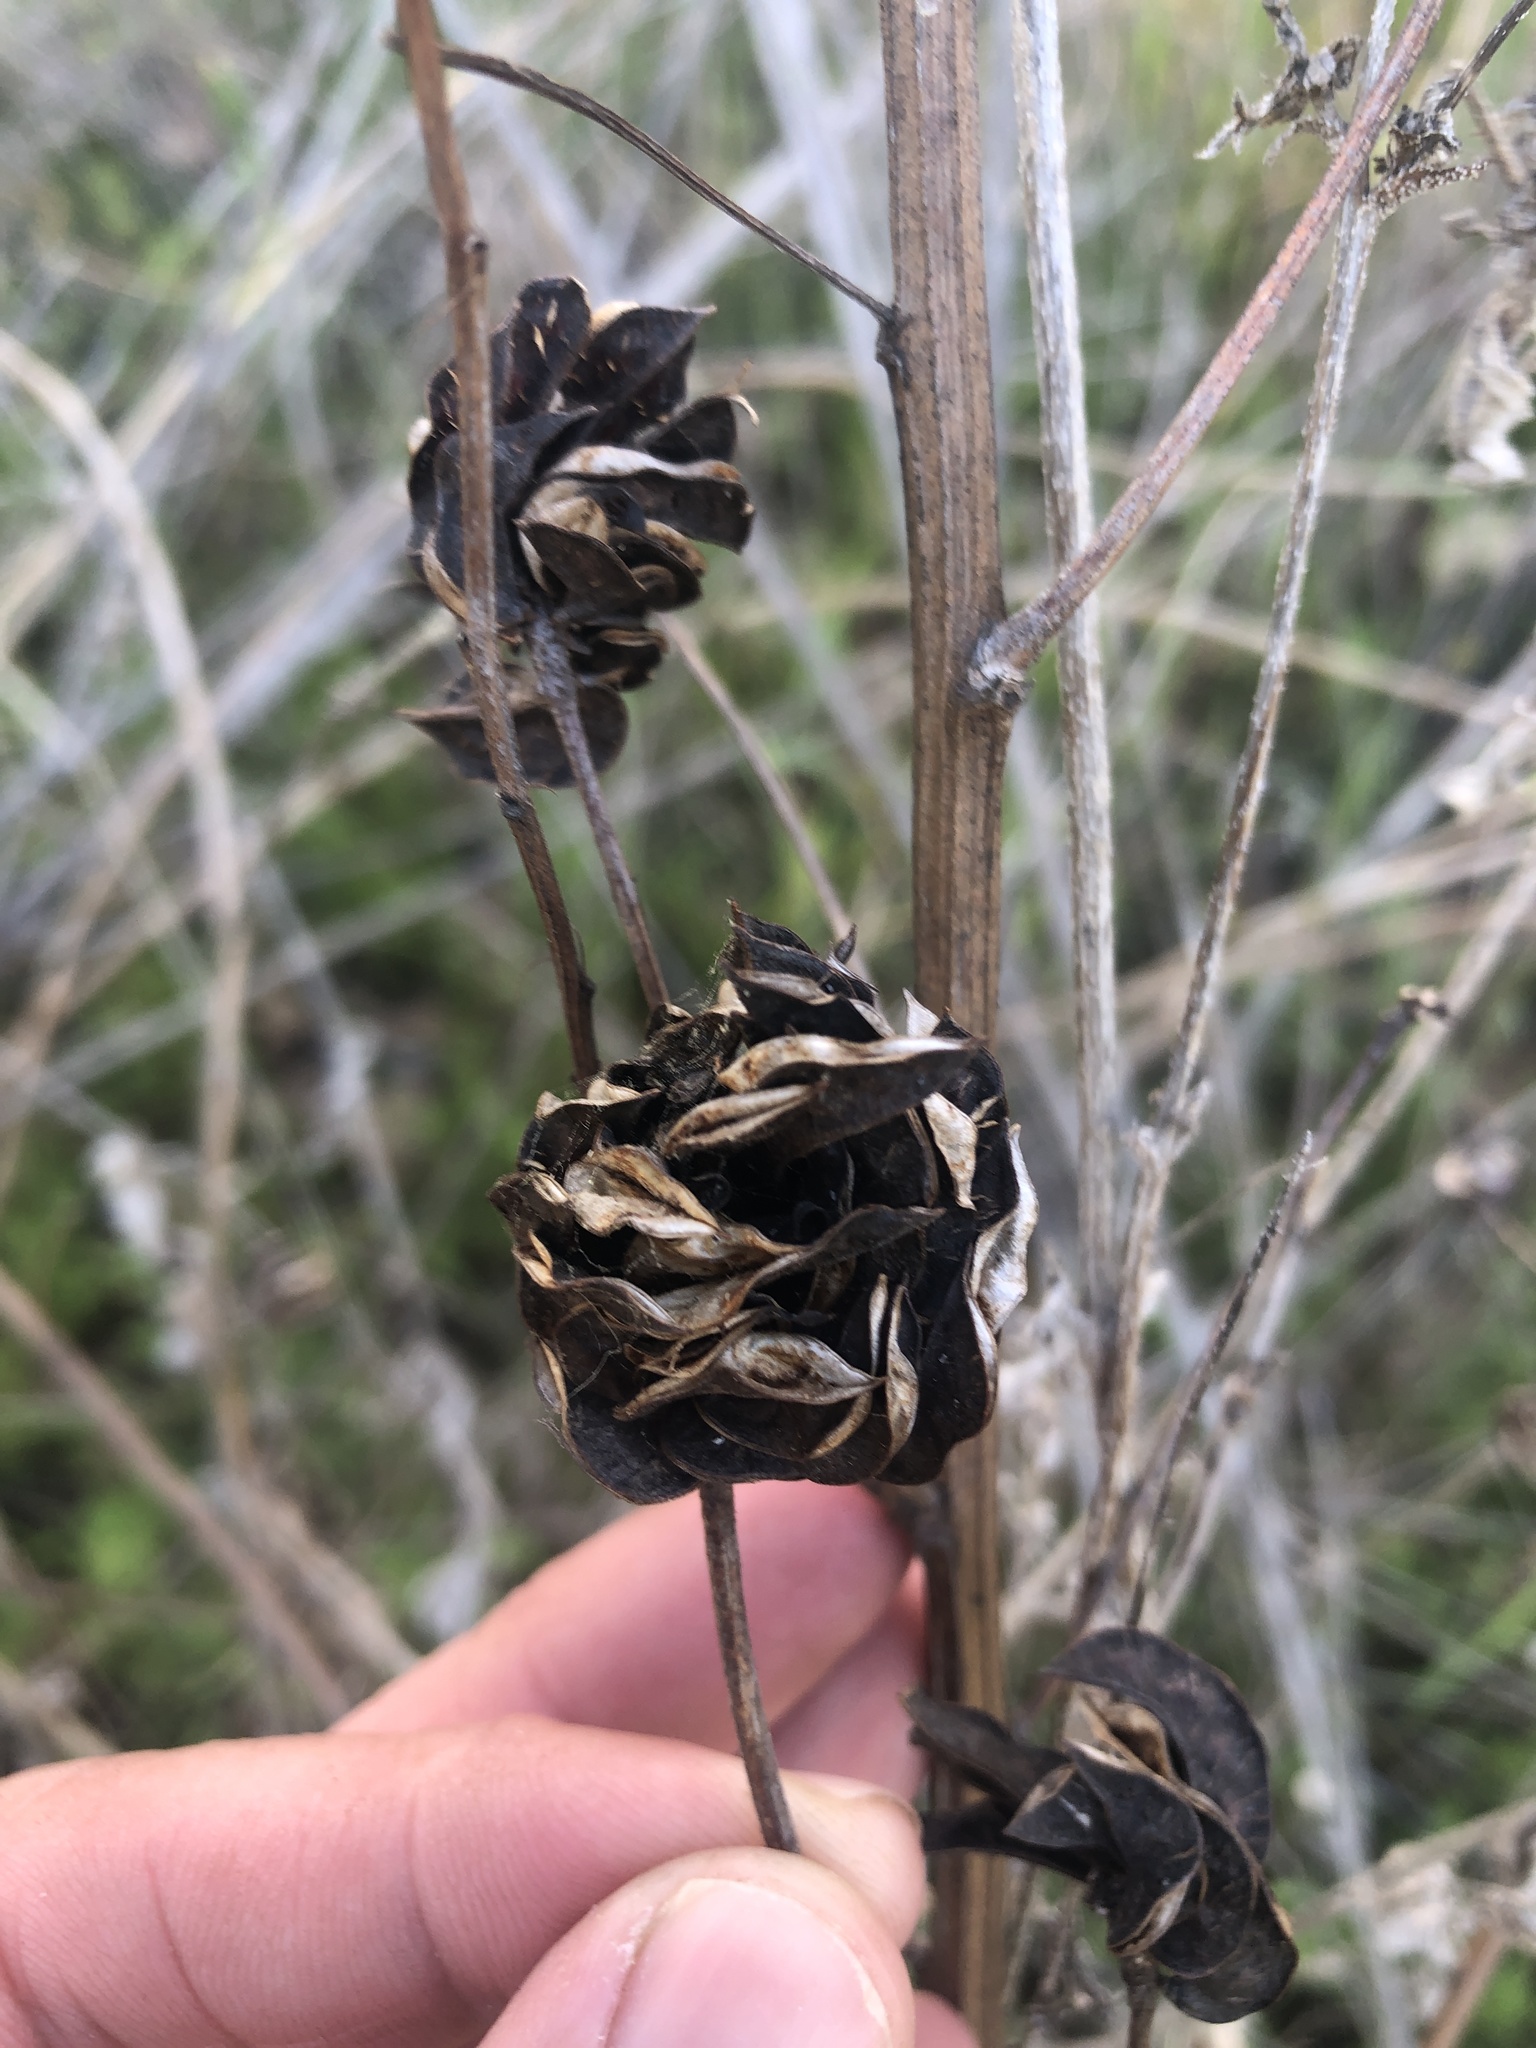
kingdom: Plantae
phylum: Tracheophyta
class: Magnoliopsida
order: Fabales
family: Fabaceae
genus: Desmanthus
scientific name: Desmanthus illinoensis
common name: Illinois bundle-flower
